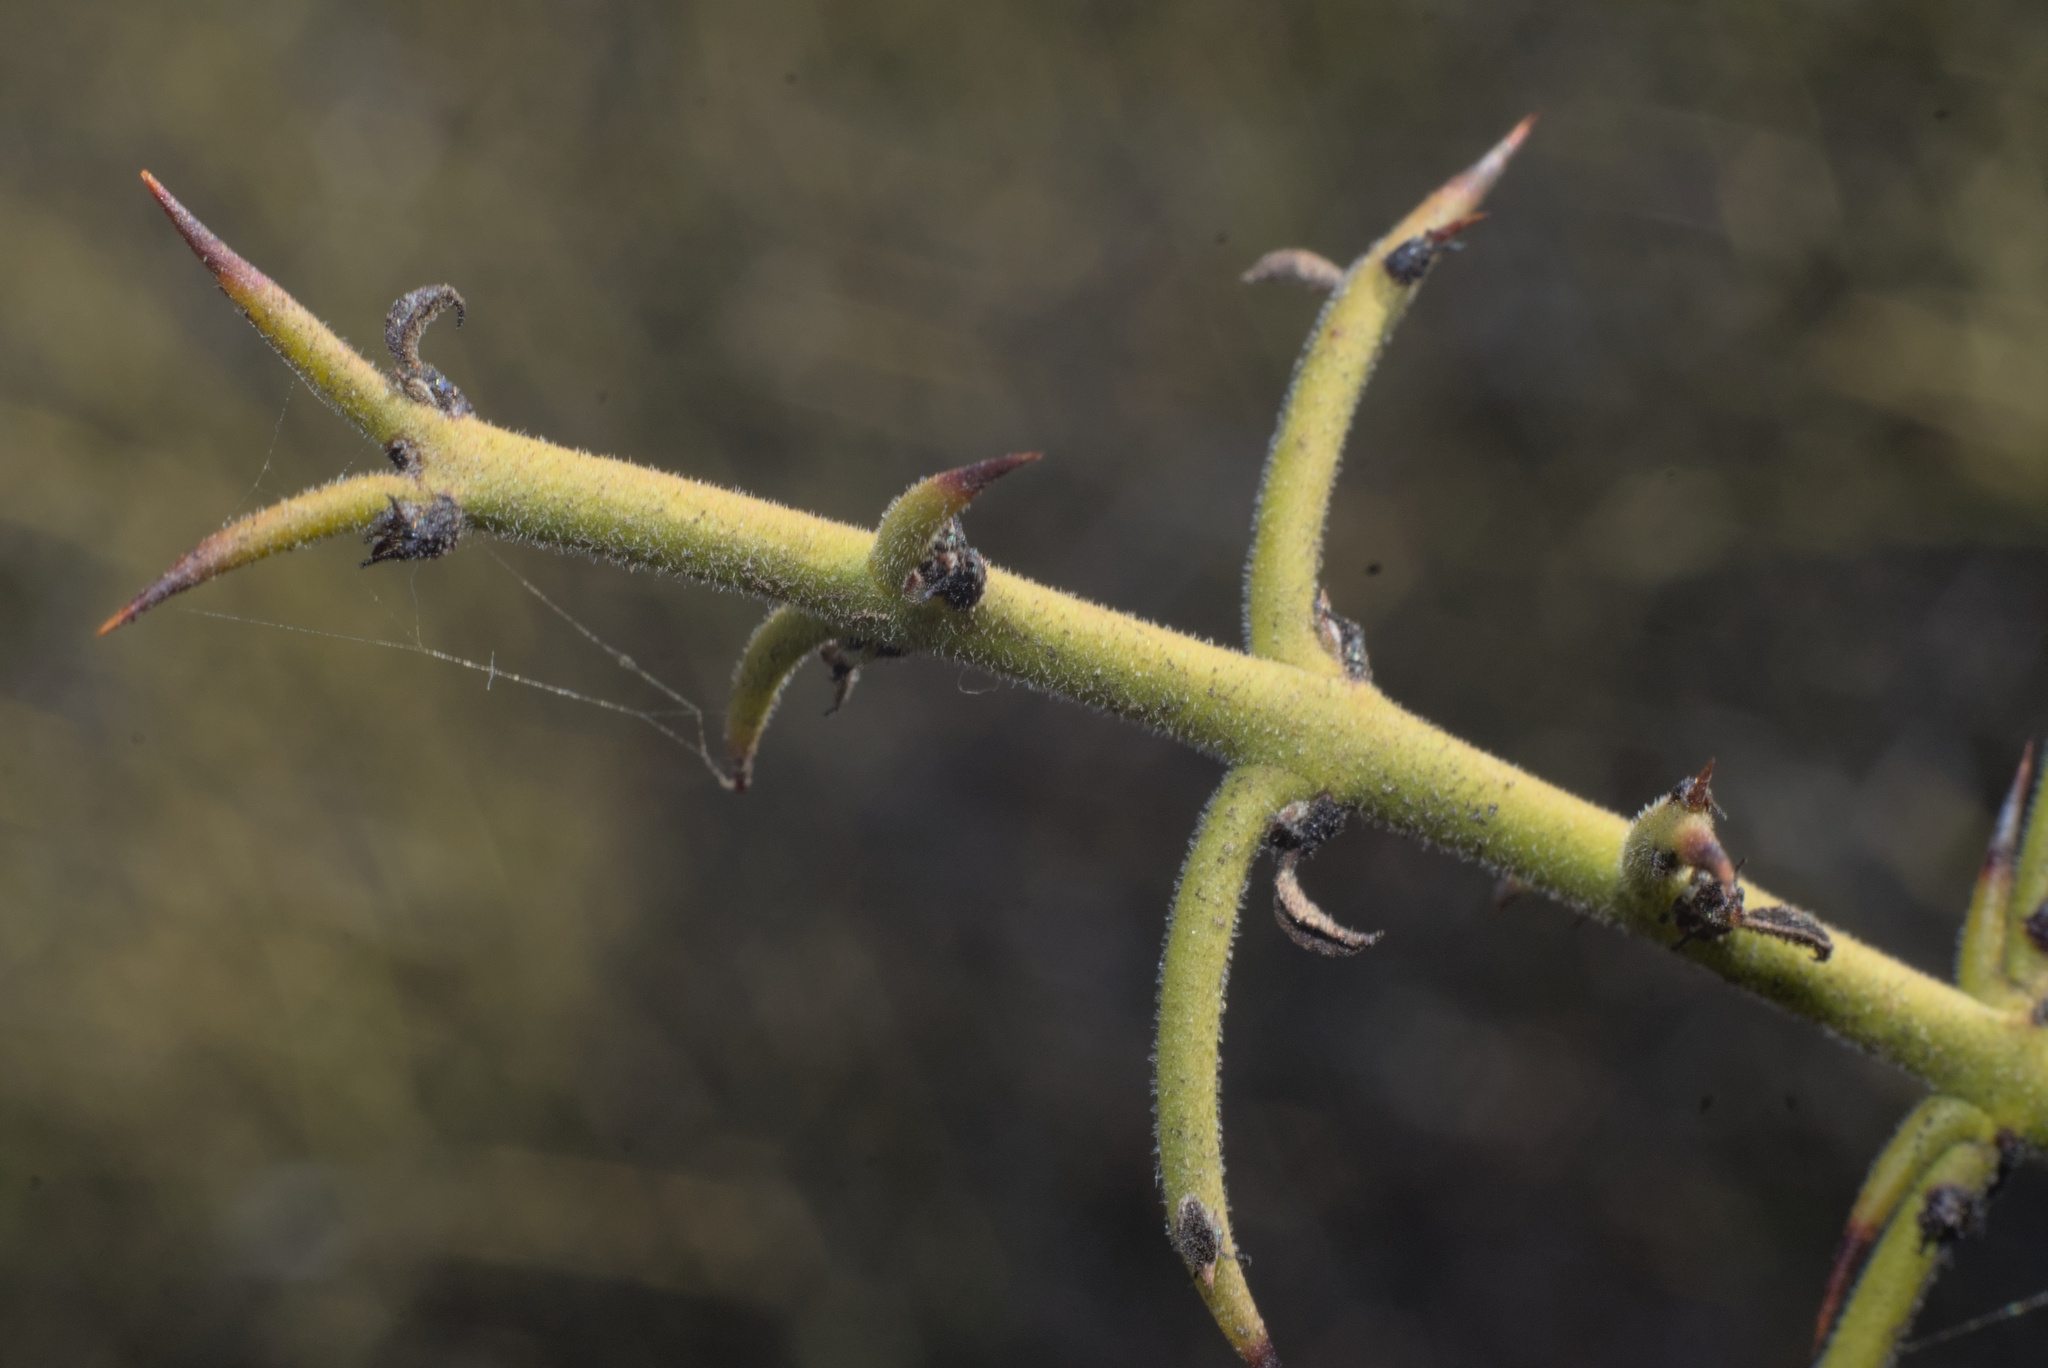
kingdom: Plantae
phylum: Tracheophyta
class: Magnoliopsida
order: Rosales
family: Rhamnaceae
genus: Adolphia
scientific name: Adolphia californica
